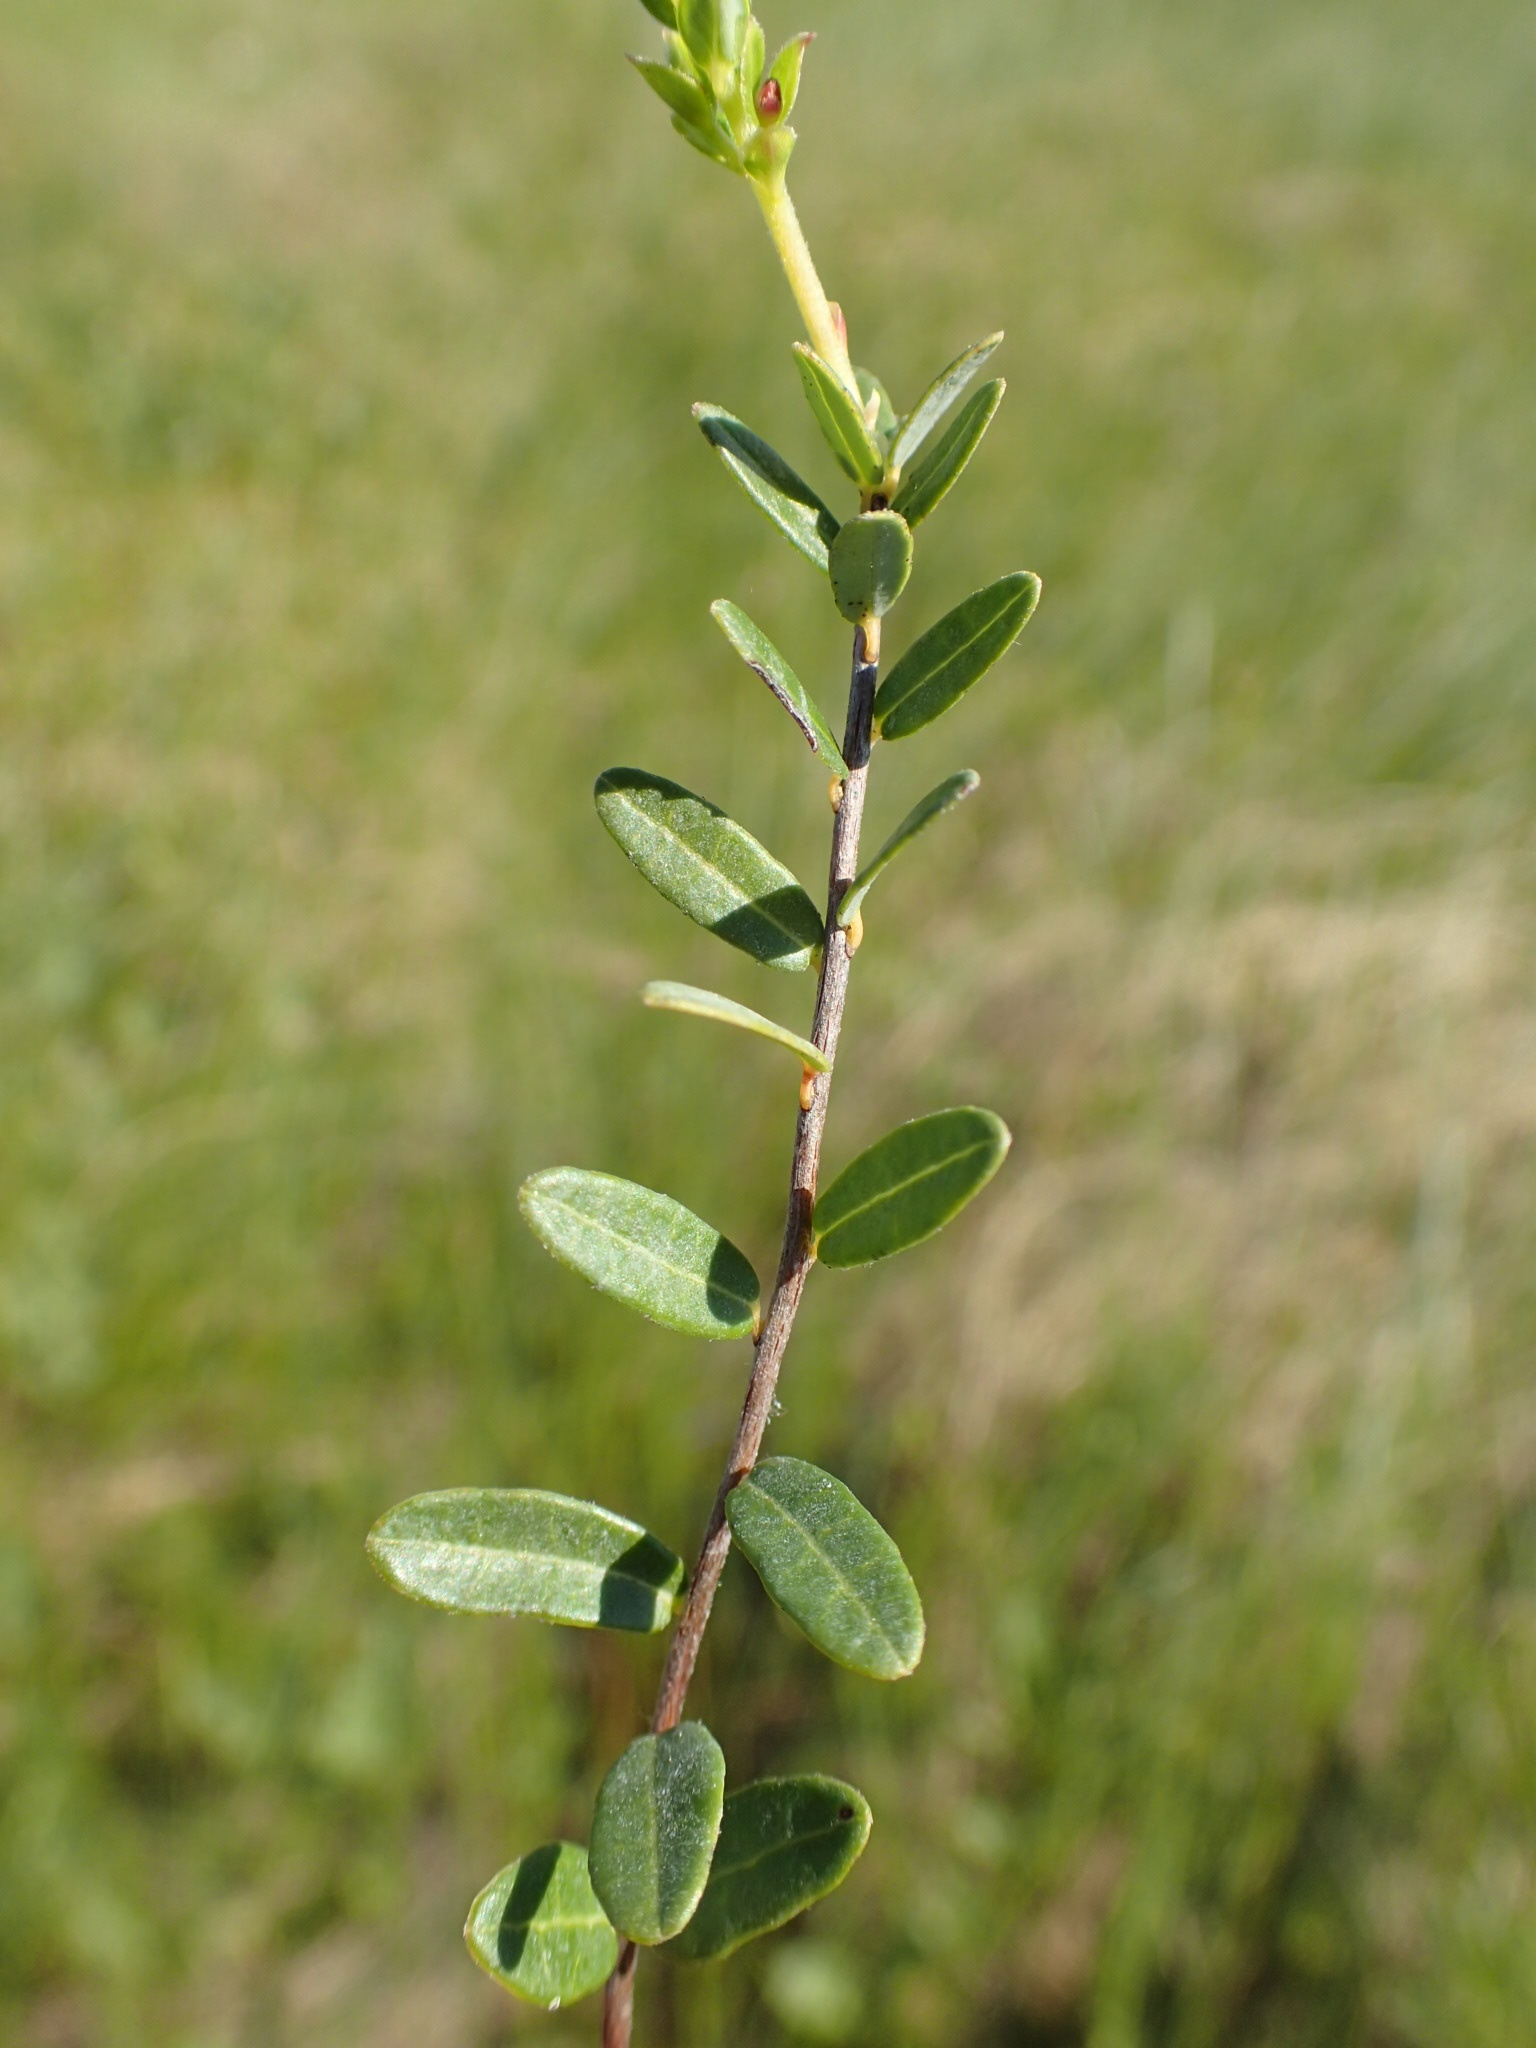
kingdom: Plantae
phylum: Tracheophyta
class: Magnoliopsida
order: Ericales
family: Ericaceae
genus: Vaccinium
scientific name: Vaccinium macrocarpon
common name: American cranberry
